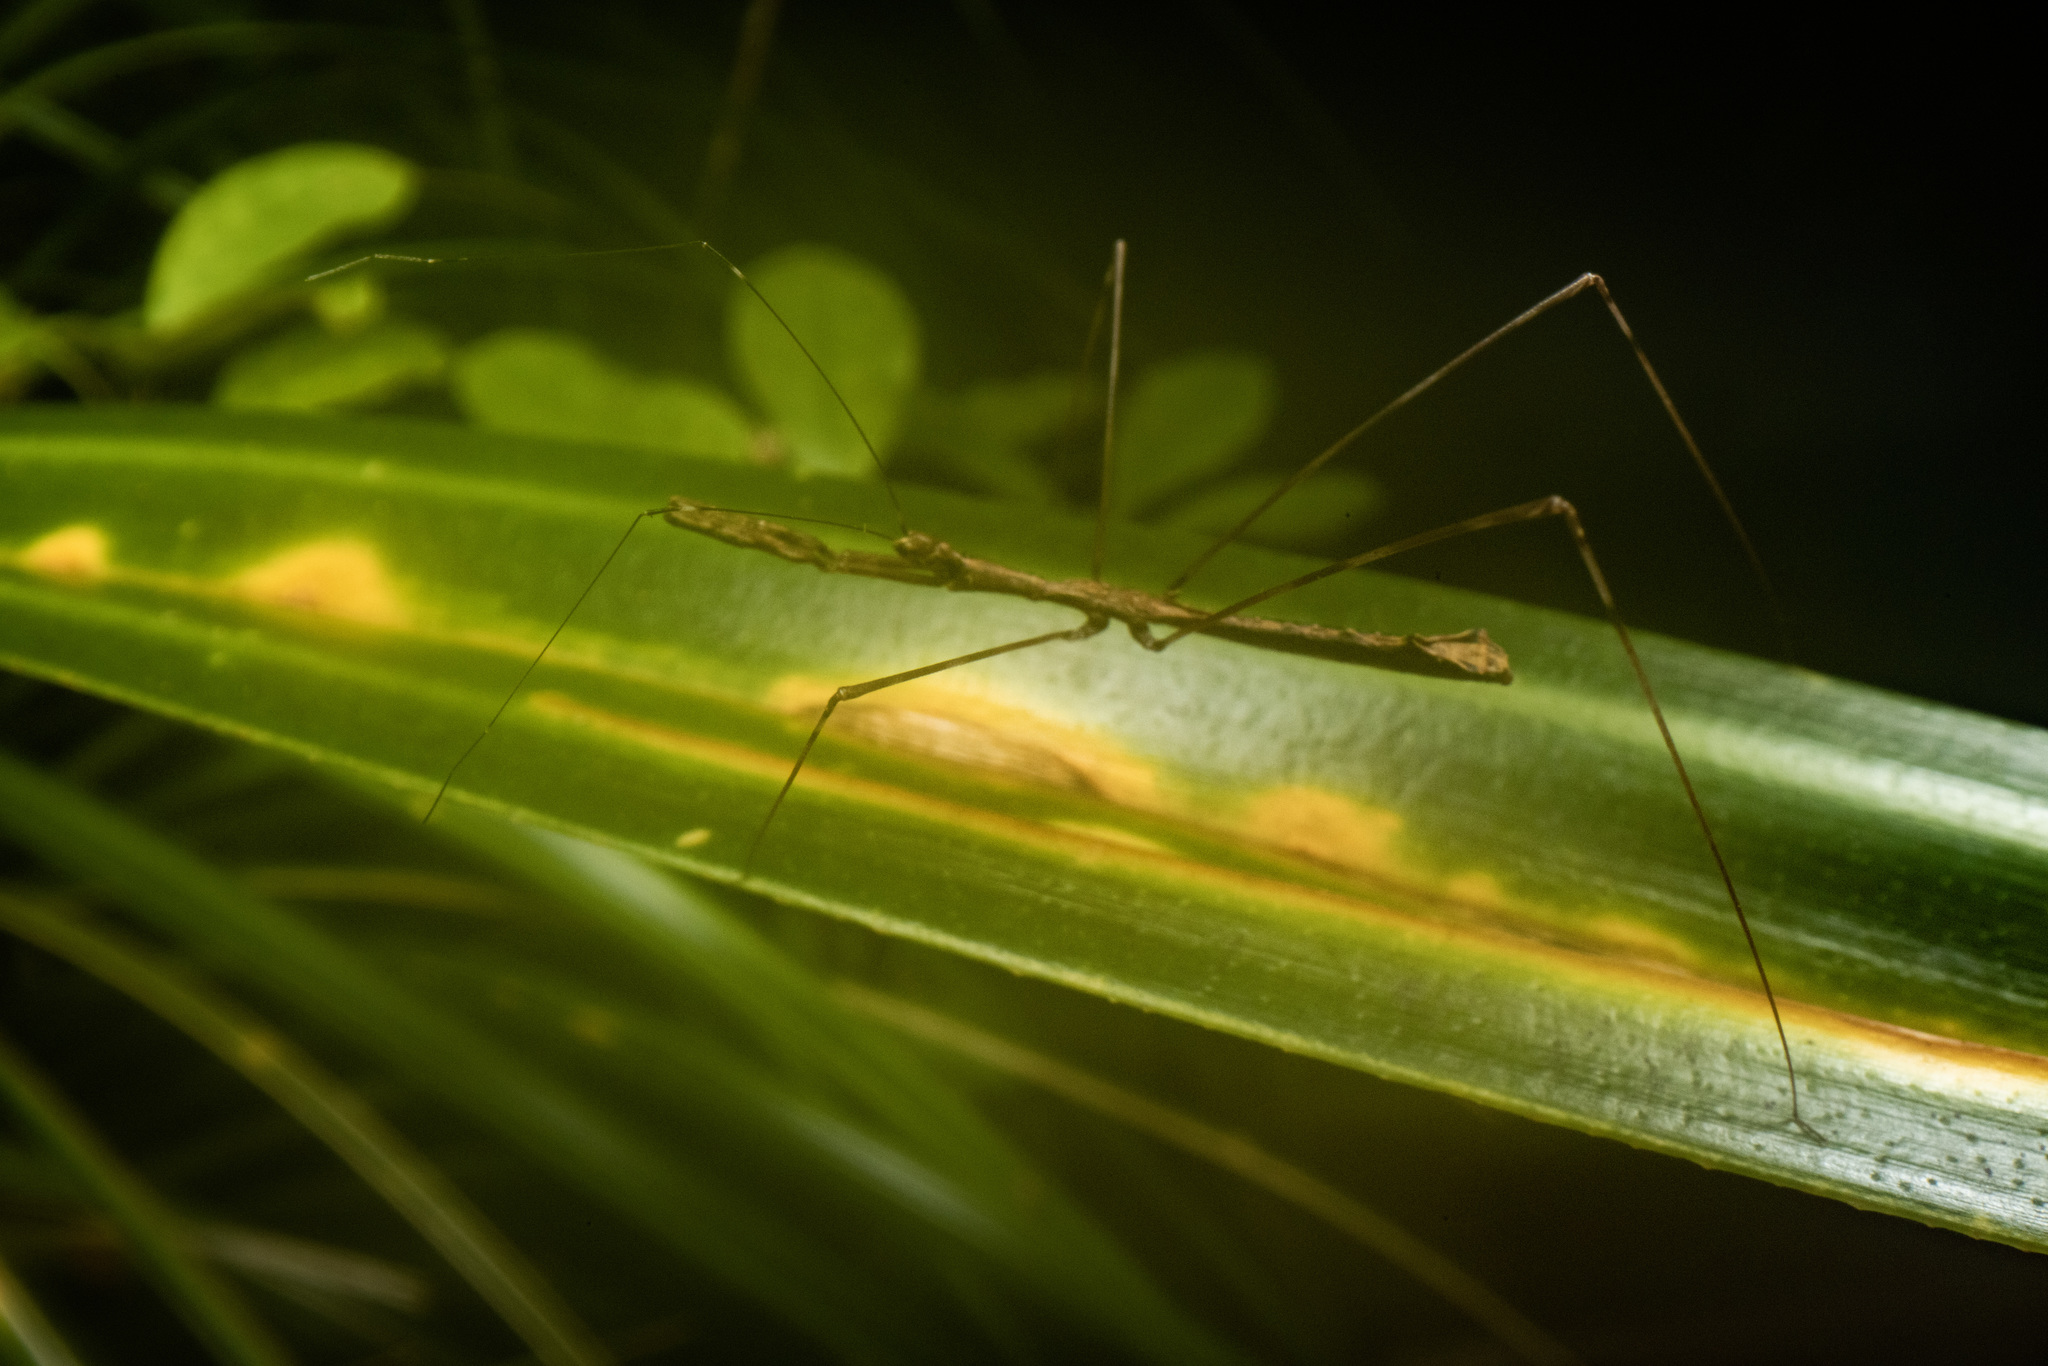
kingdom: Animalia
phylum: Arthropoda
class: Insecta
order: Hemiptera
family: Reduviidae
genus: Ploiaria
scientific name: Ploiaria antipodum
